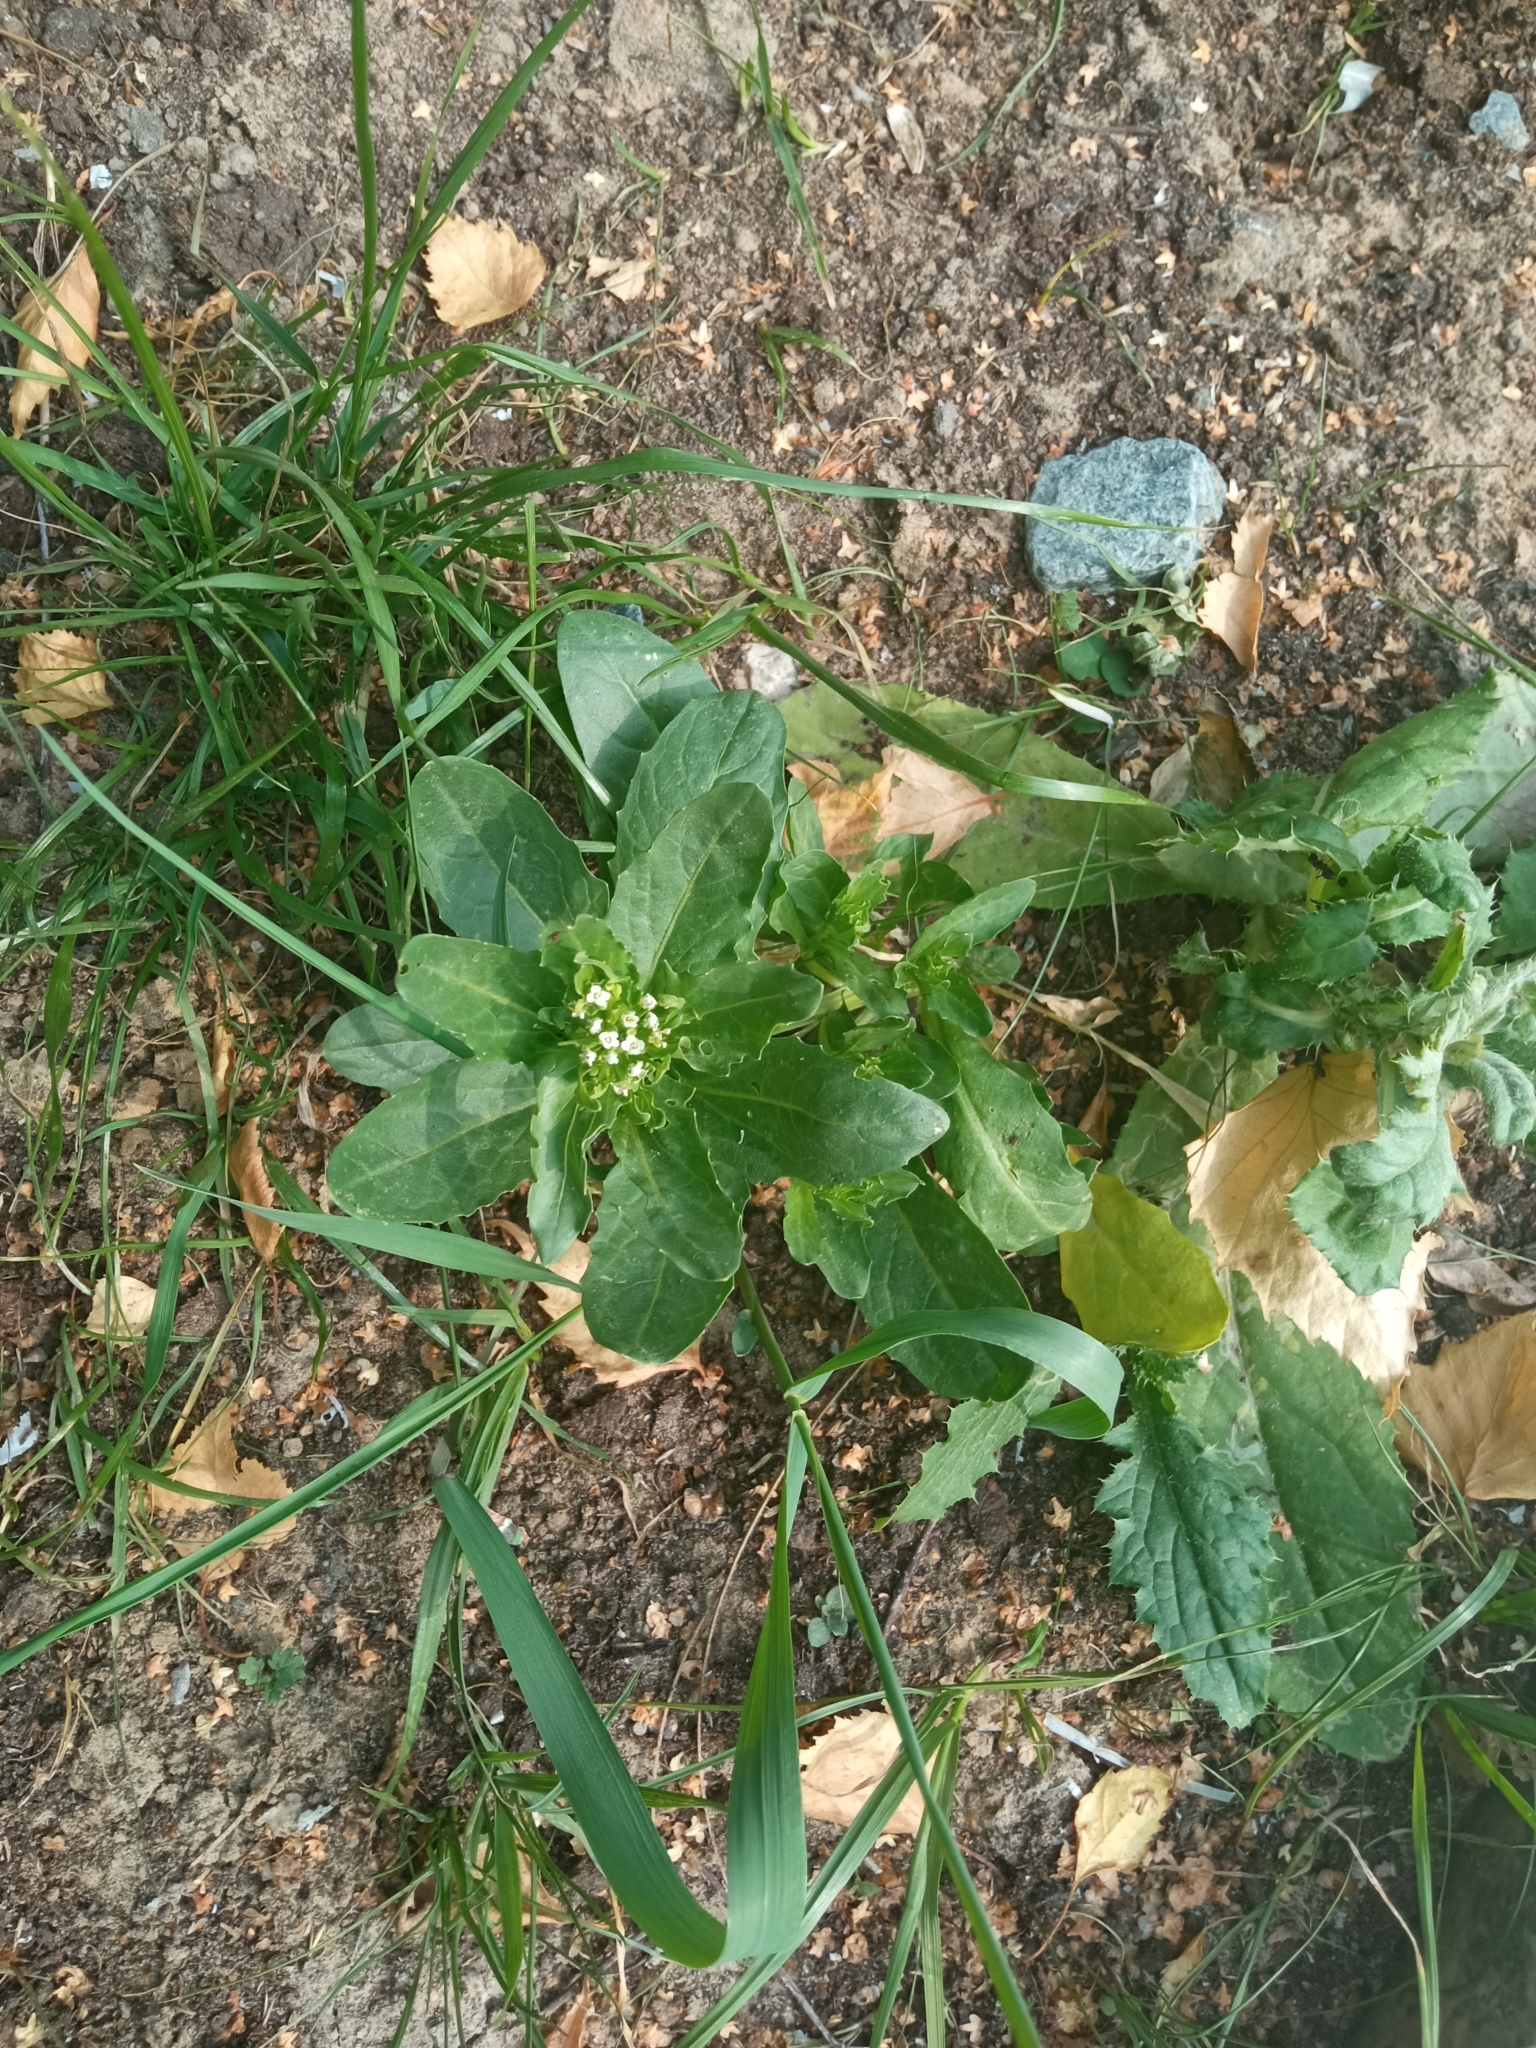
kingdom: Plantae
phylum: Tracheophyta
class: Magnoliopsida
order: Brassicales
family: Brassicaceae
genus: Thlaspi
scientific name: Thlaspi arvense
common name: Field pennycress
